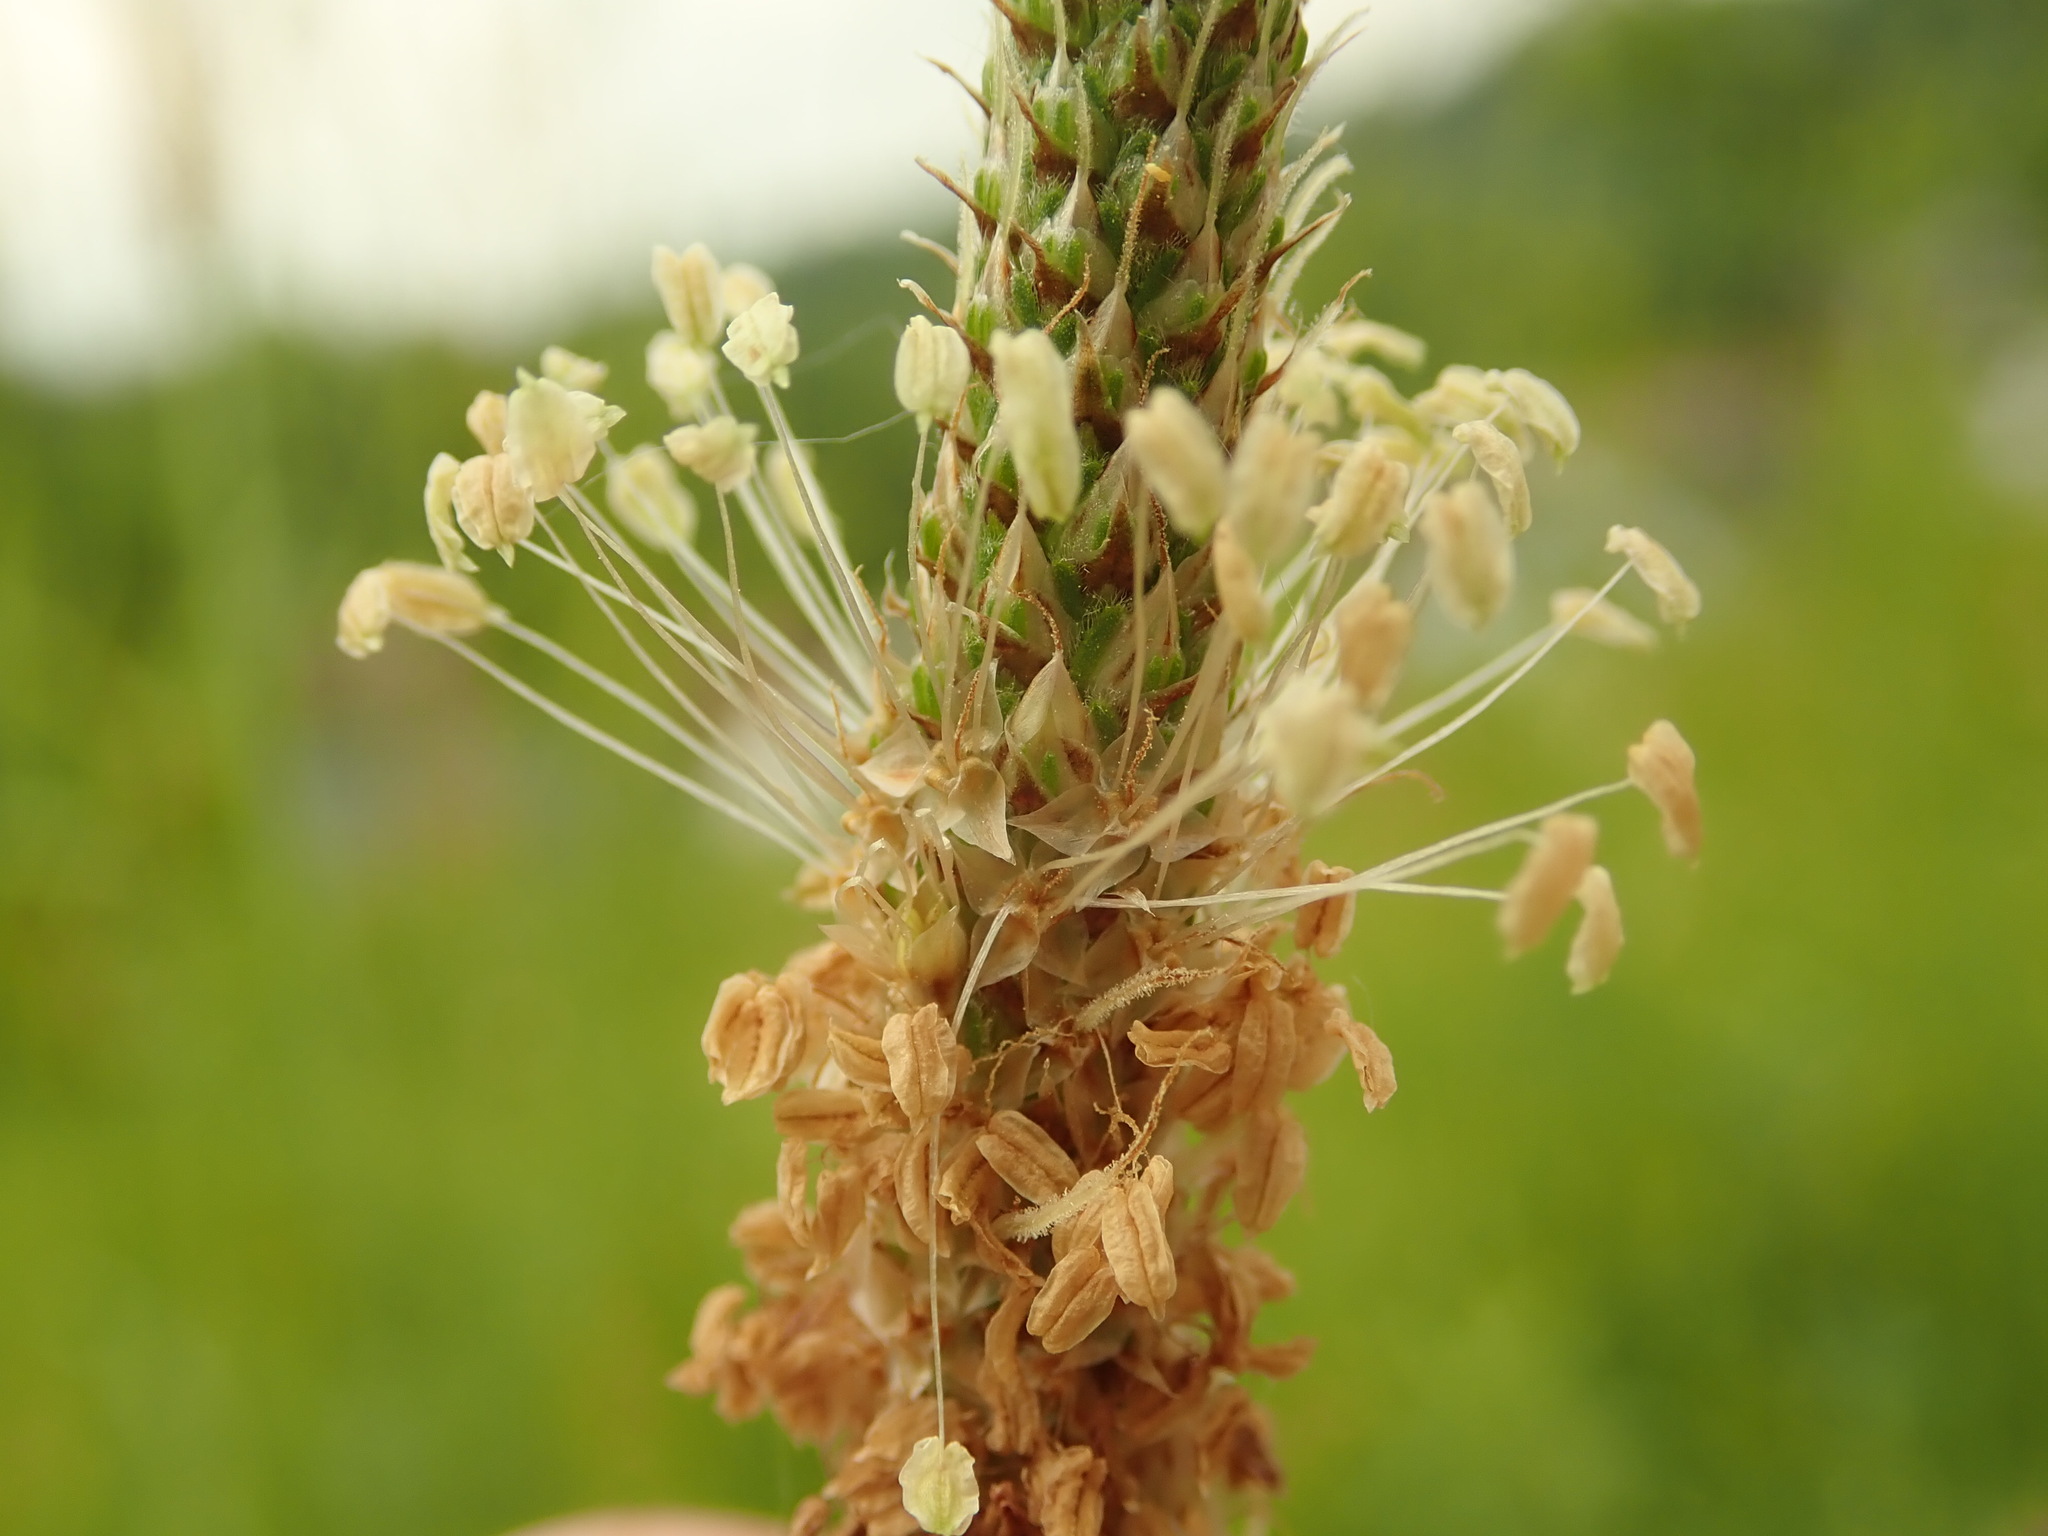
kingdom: Plantae
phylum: Tracheophyta
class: Magnoliopsida
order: Lamiales
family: Plantaginaceae
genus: Plantago
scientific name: Plantago lanceolata
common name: Ribwort plantain
